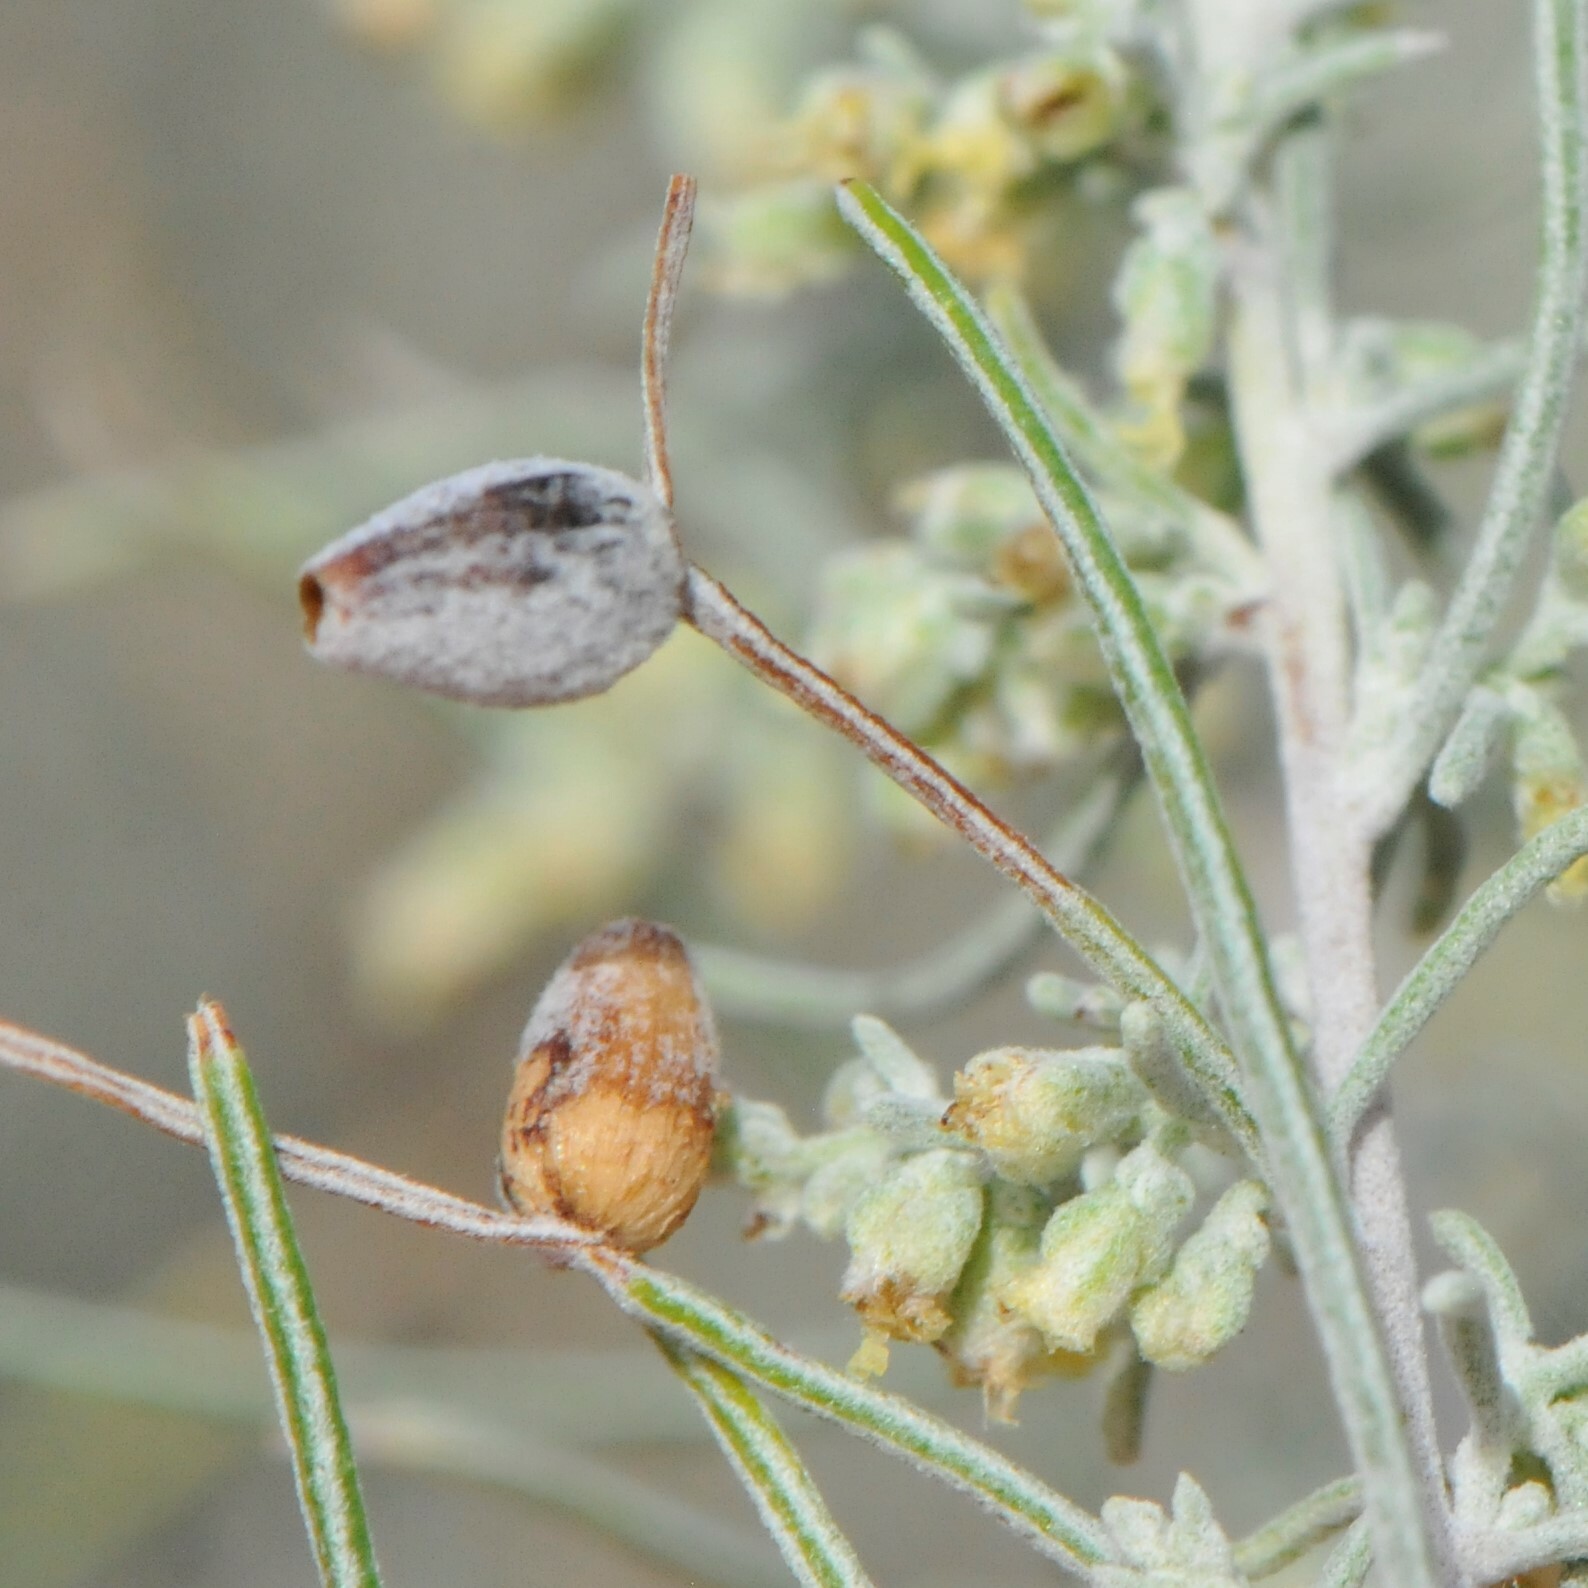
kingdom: Animalia
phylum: Arthropoda
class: Insecta
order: Diptera
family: Cecidomyiidae
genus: Rhopalomyia
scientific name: Rhopalomyia ampullaria
